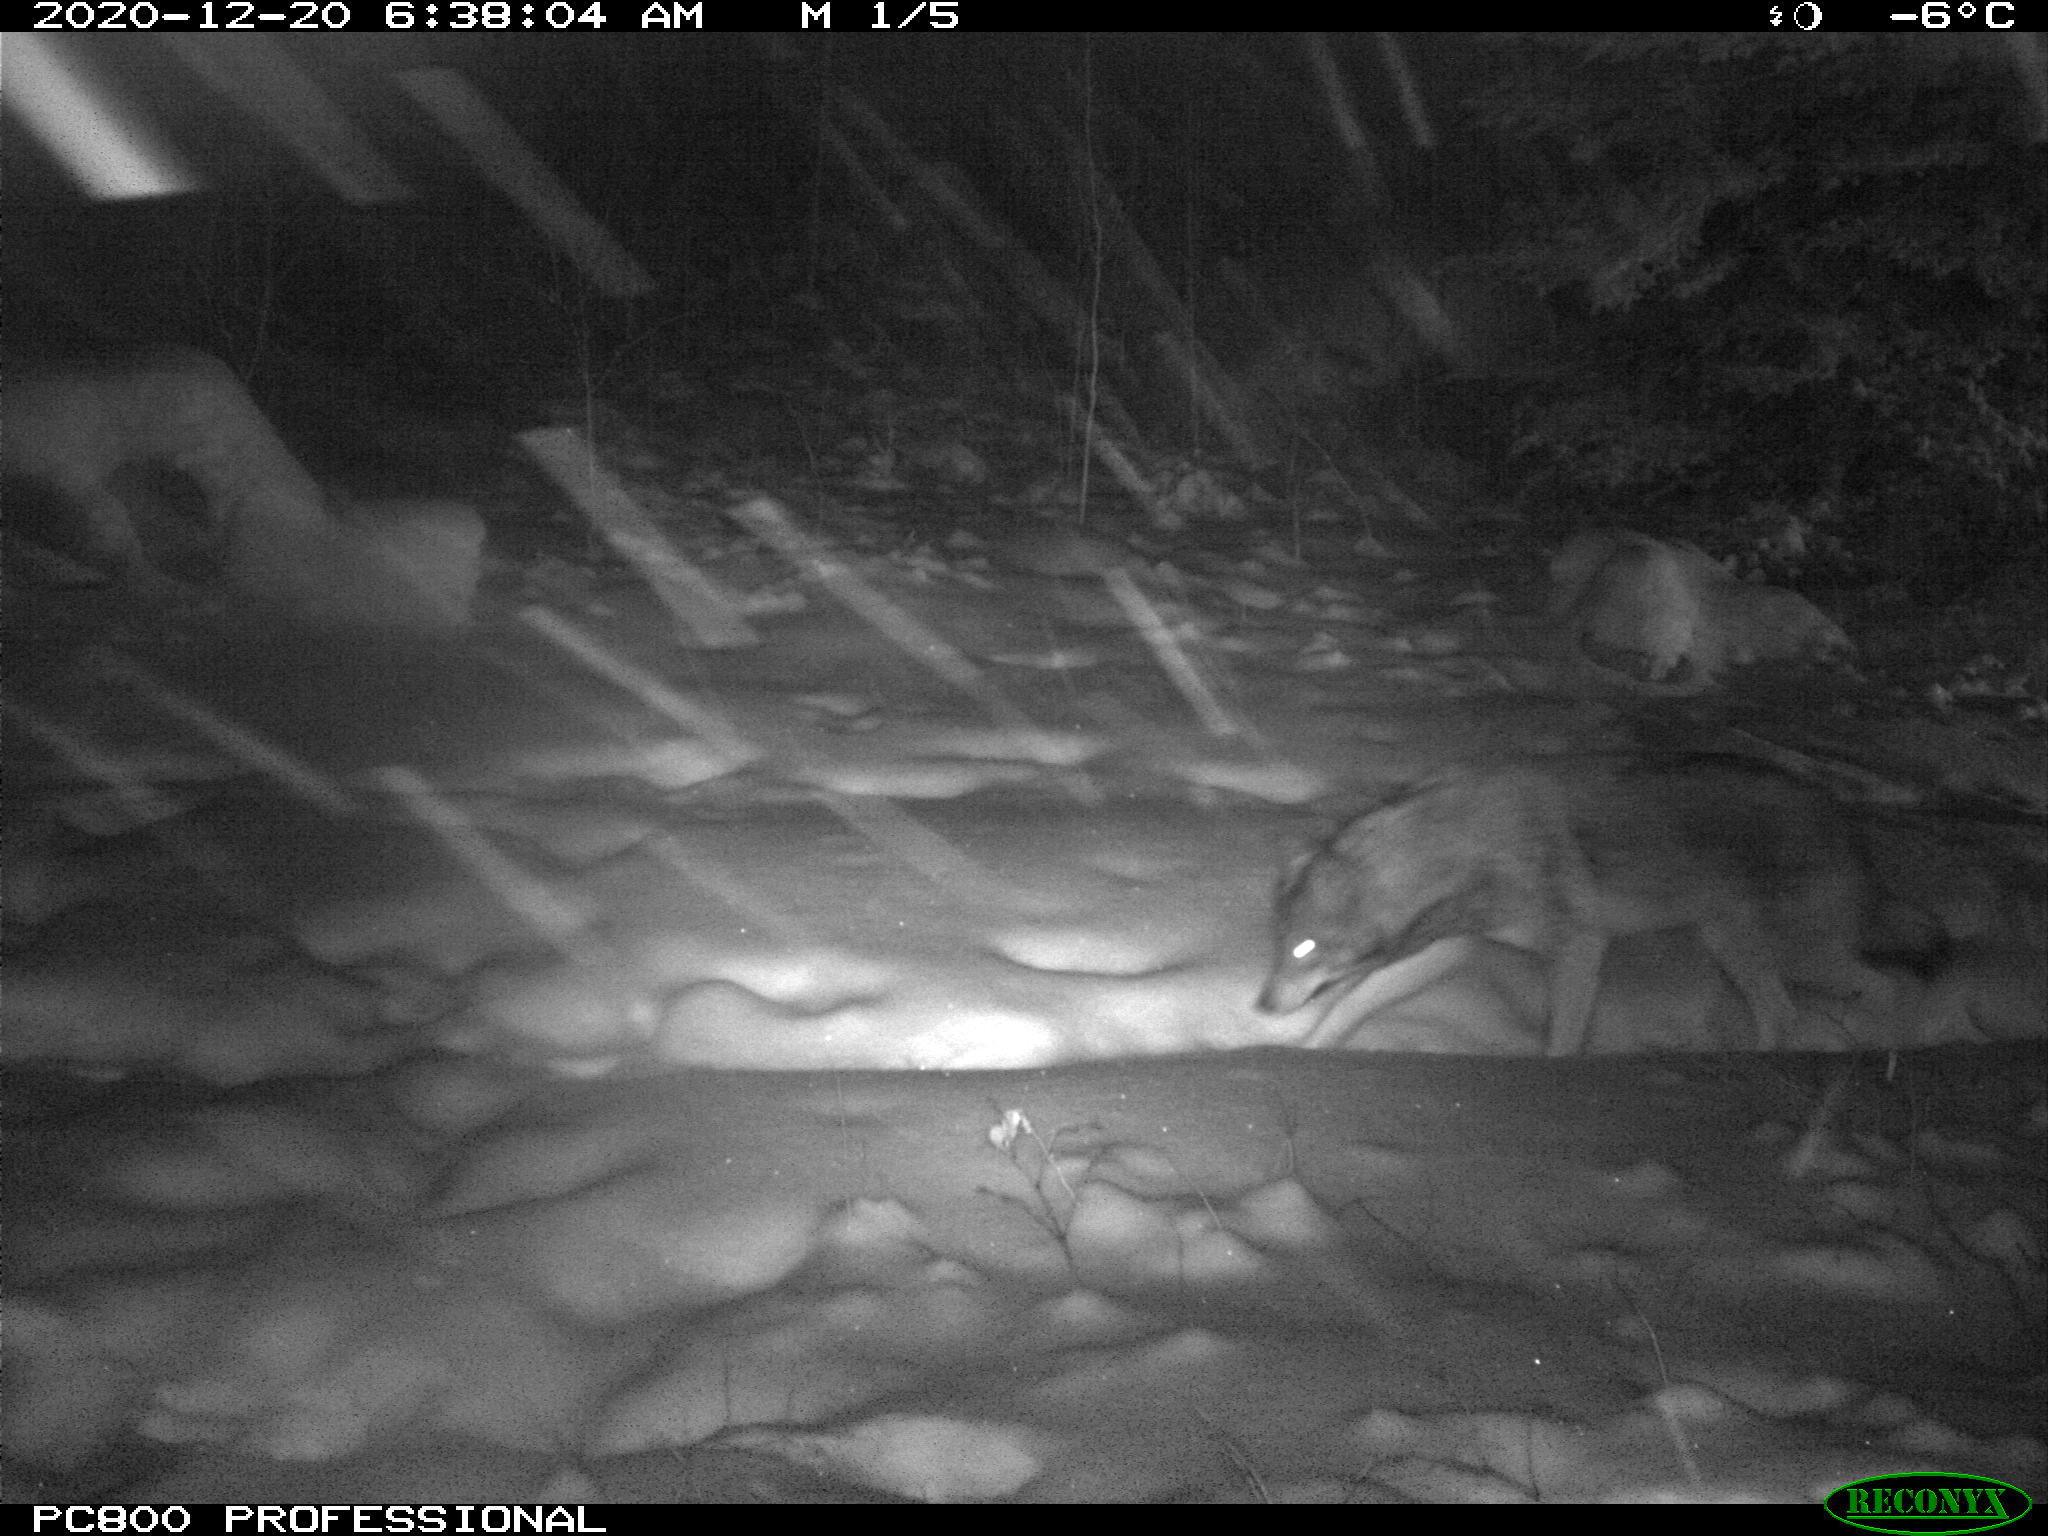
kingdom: Animalia
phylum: Chordata
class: Mammalia
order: Carnivora
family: Canidae
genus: Canis
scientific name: Canis latrans
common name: Coyote
